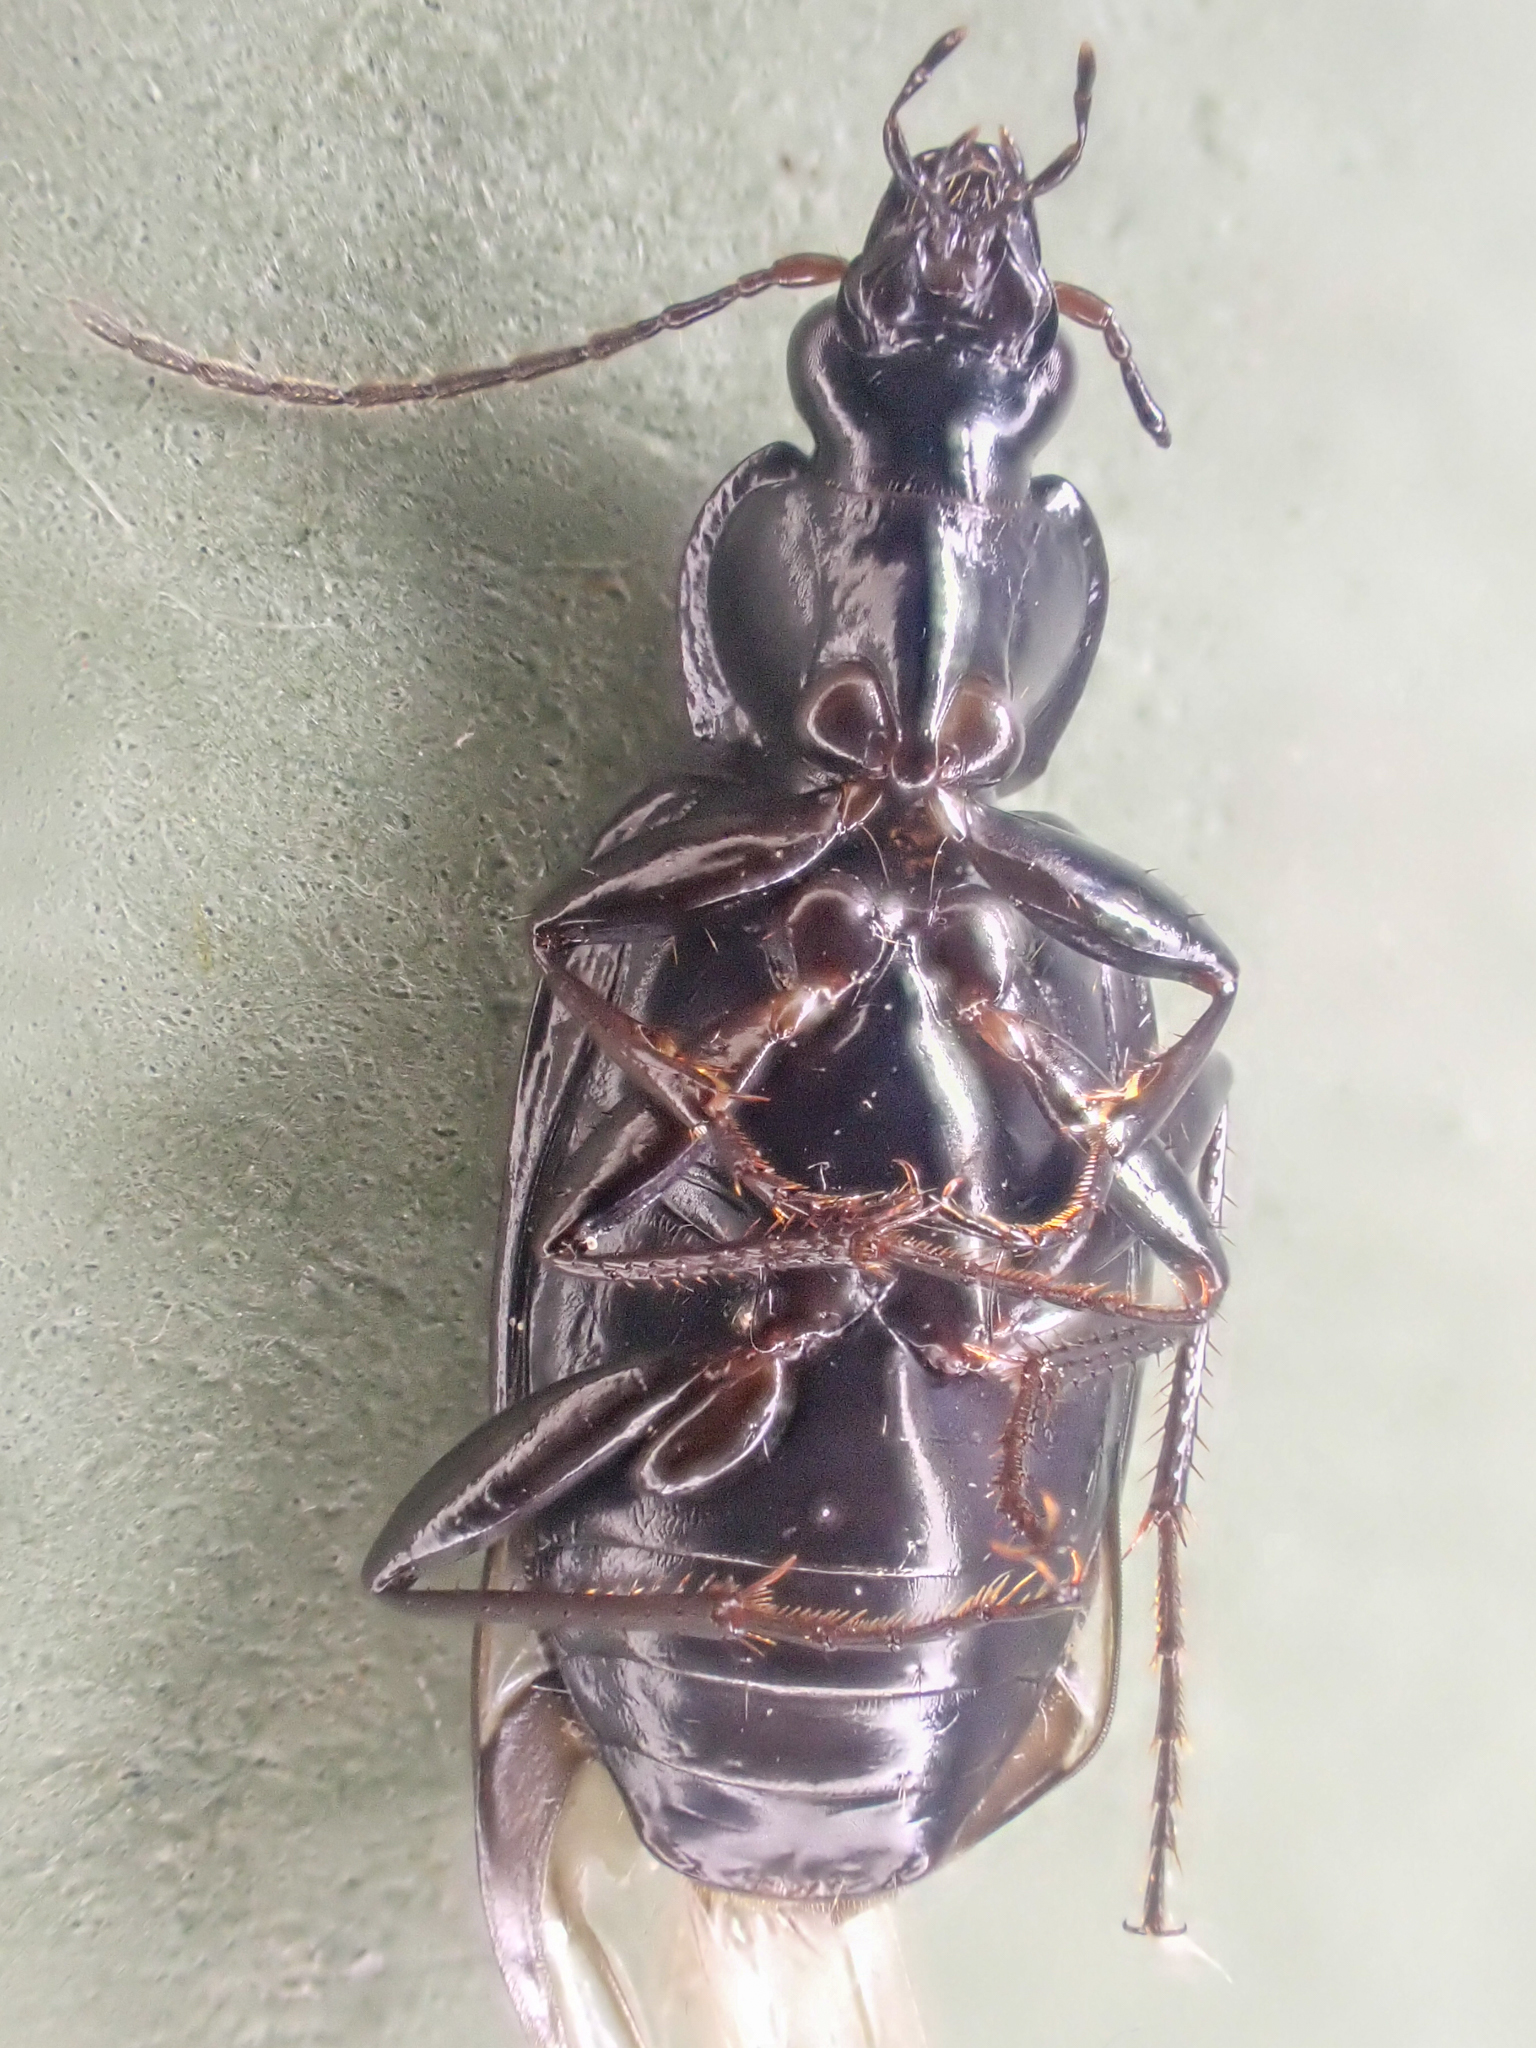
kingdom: Animalia
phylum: Arthropoda
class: Insecta
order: Coleoptera
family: Carabidae
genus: Agonum
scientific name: Agonum placidum
